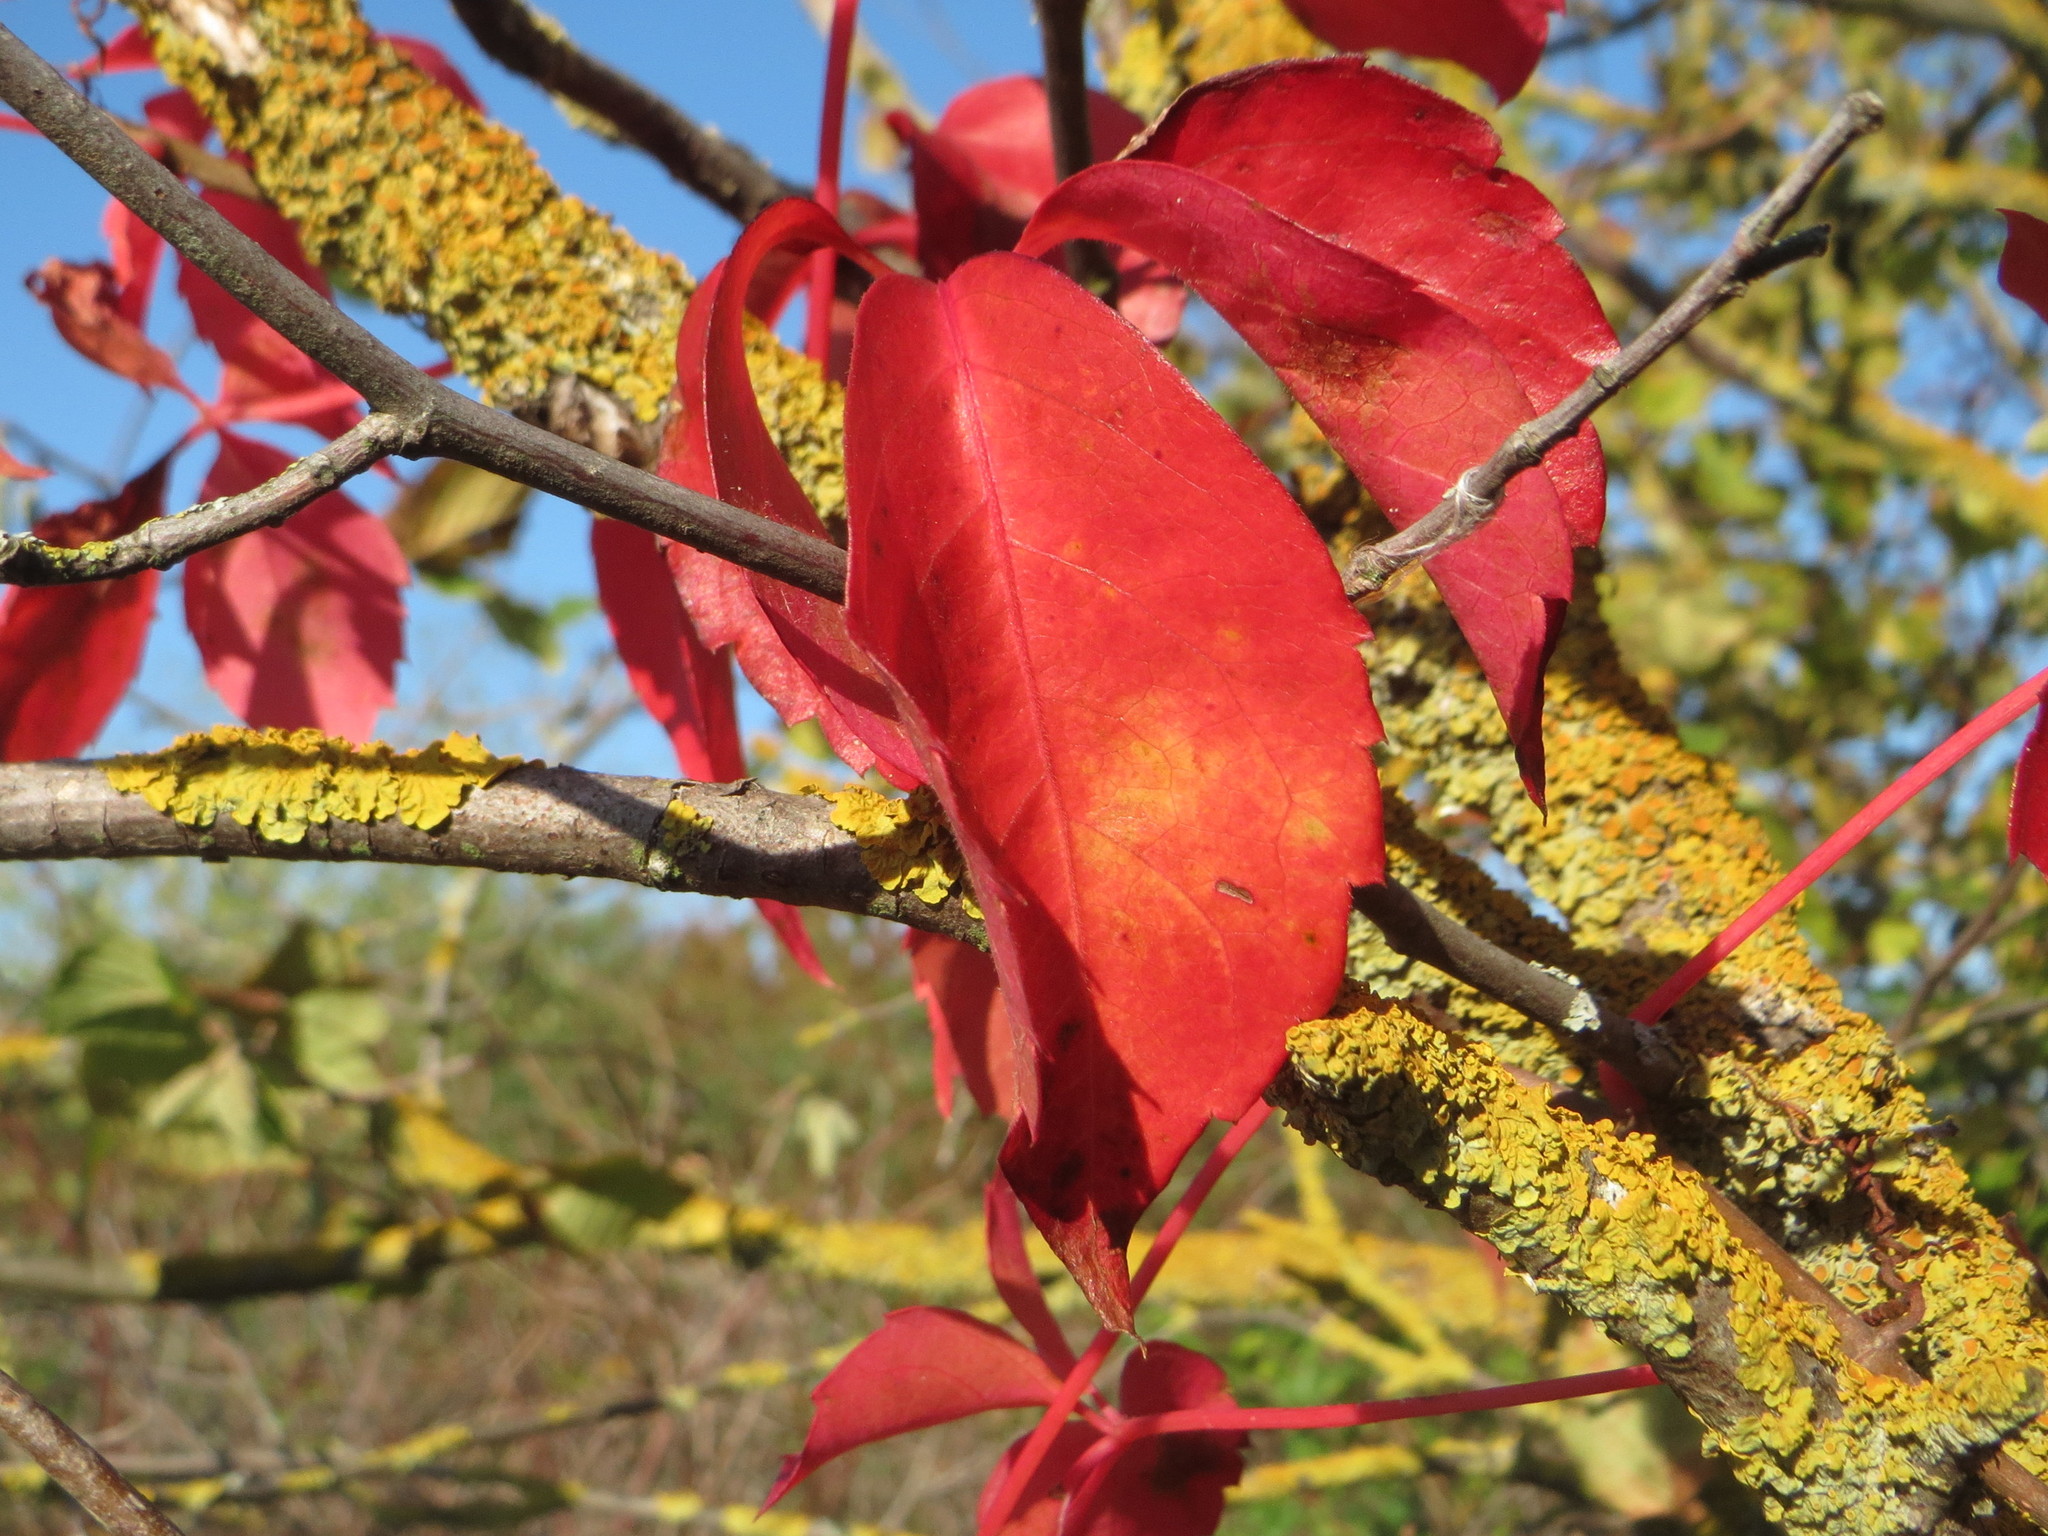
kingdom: Plantae
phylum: Tracheophyta
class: Magnoliopsida
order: Vitales
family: Vitaceae
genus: Parthenocissus
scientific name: Parthenocissus quinquefolia
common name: Virginia-creeper
